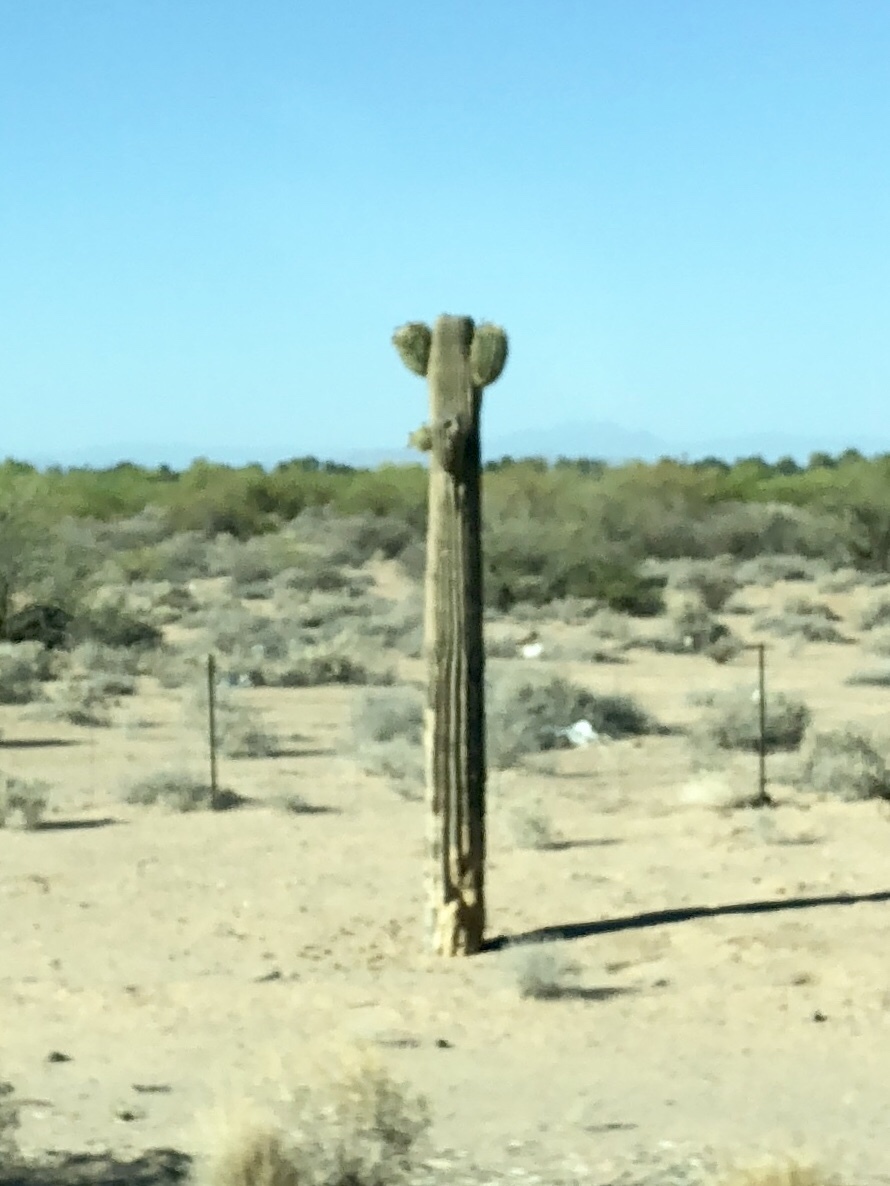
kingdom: Plantae
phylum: Tracheophyta
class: Magnoliopsida
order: Caryophyllales
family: Cactaceae
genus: Carnegiea
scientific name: Carnegiea gigantea
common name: Saguaro
